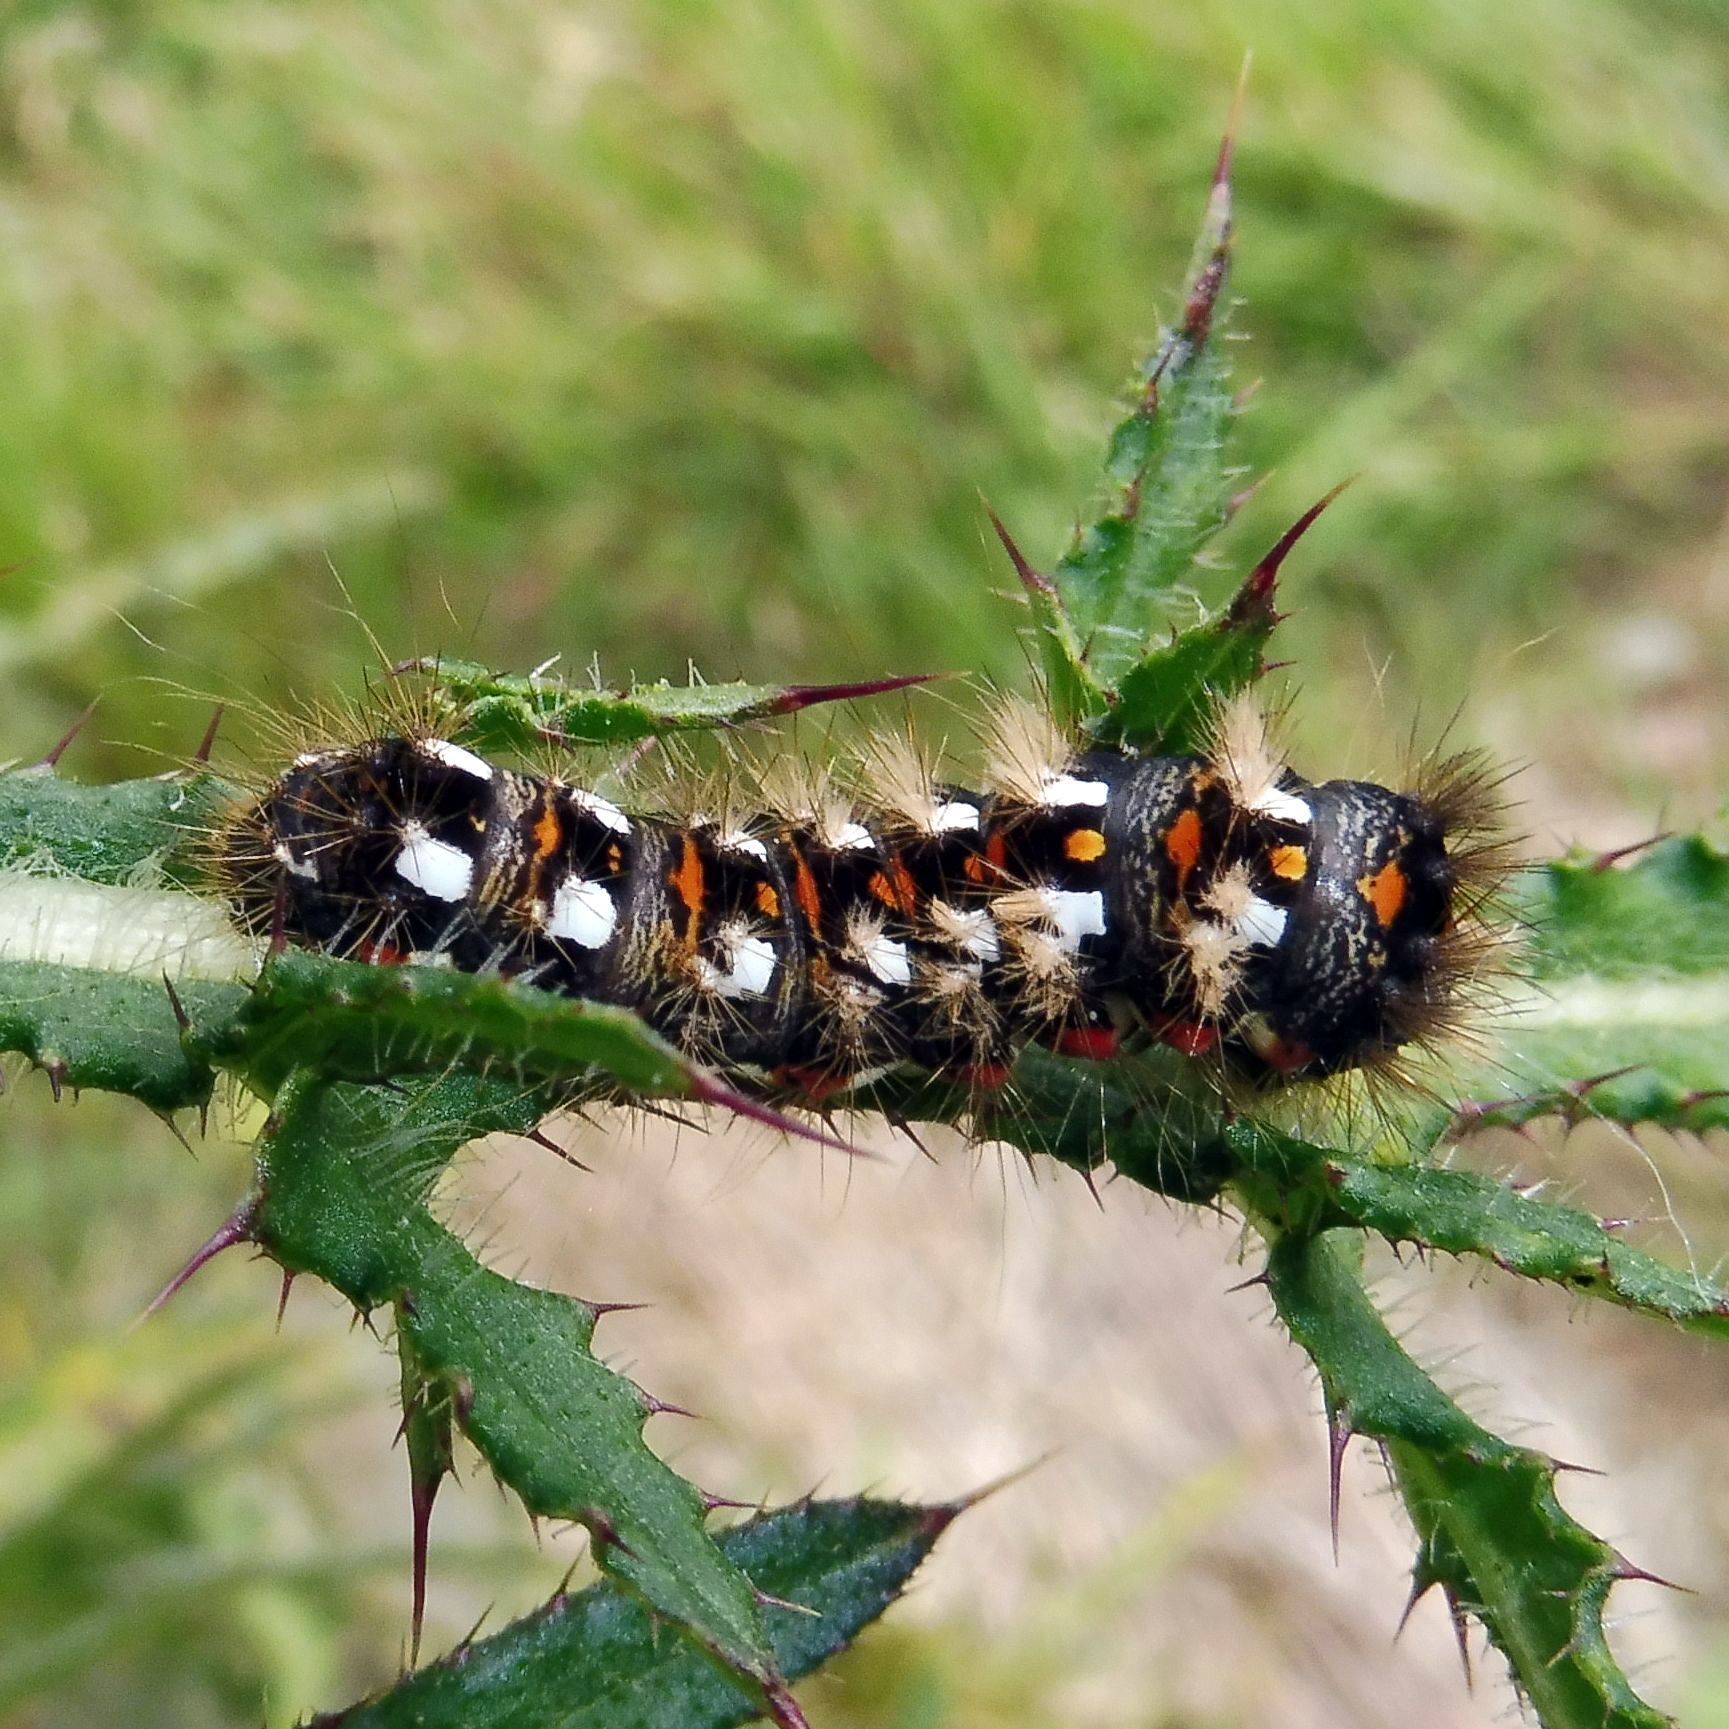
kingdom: Animalia
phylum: Arthropoda
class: Insecta
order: Lepidoptera
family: Noctuidae
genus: Acronicta
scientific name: Acronicta rumicis
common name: Knot grass
